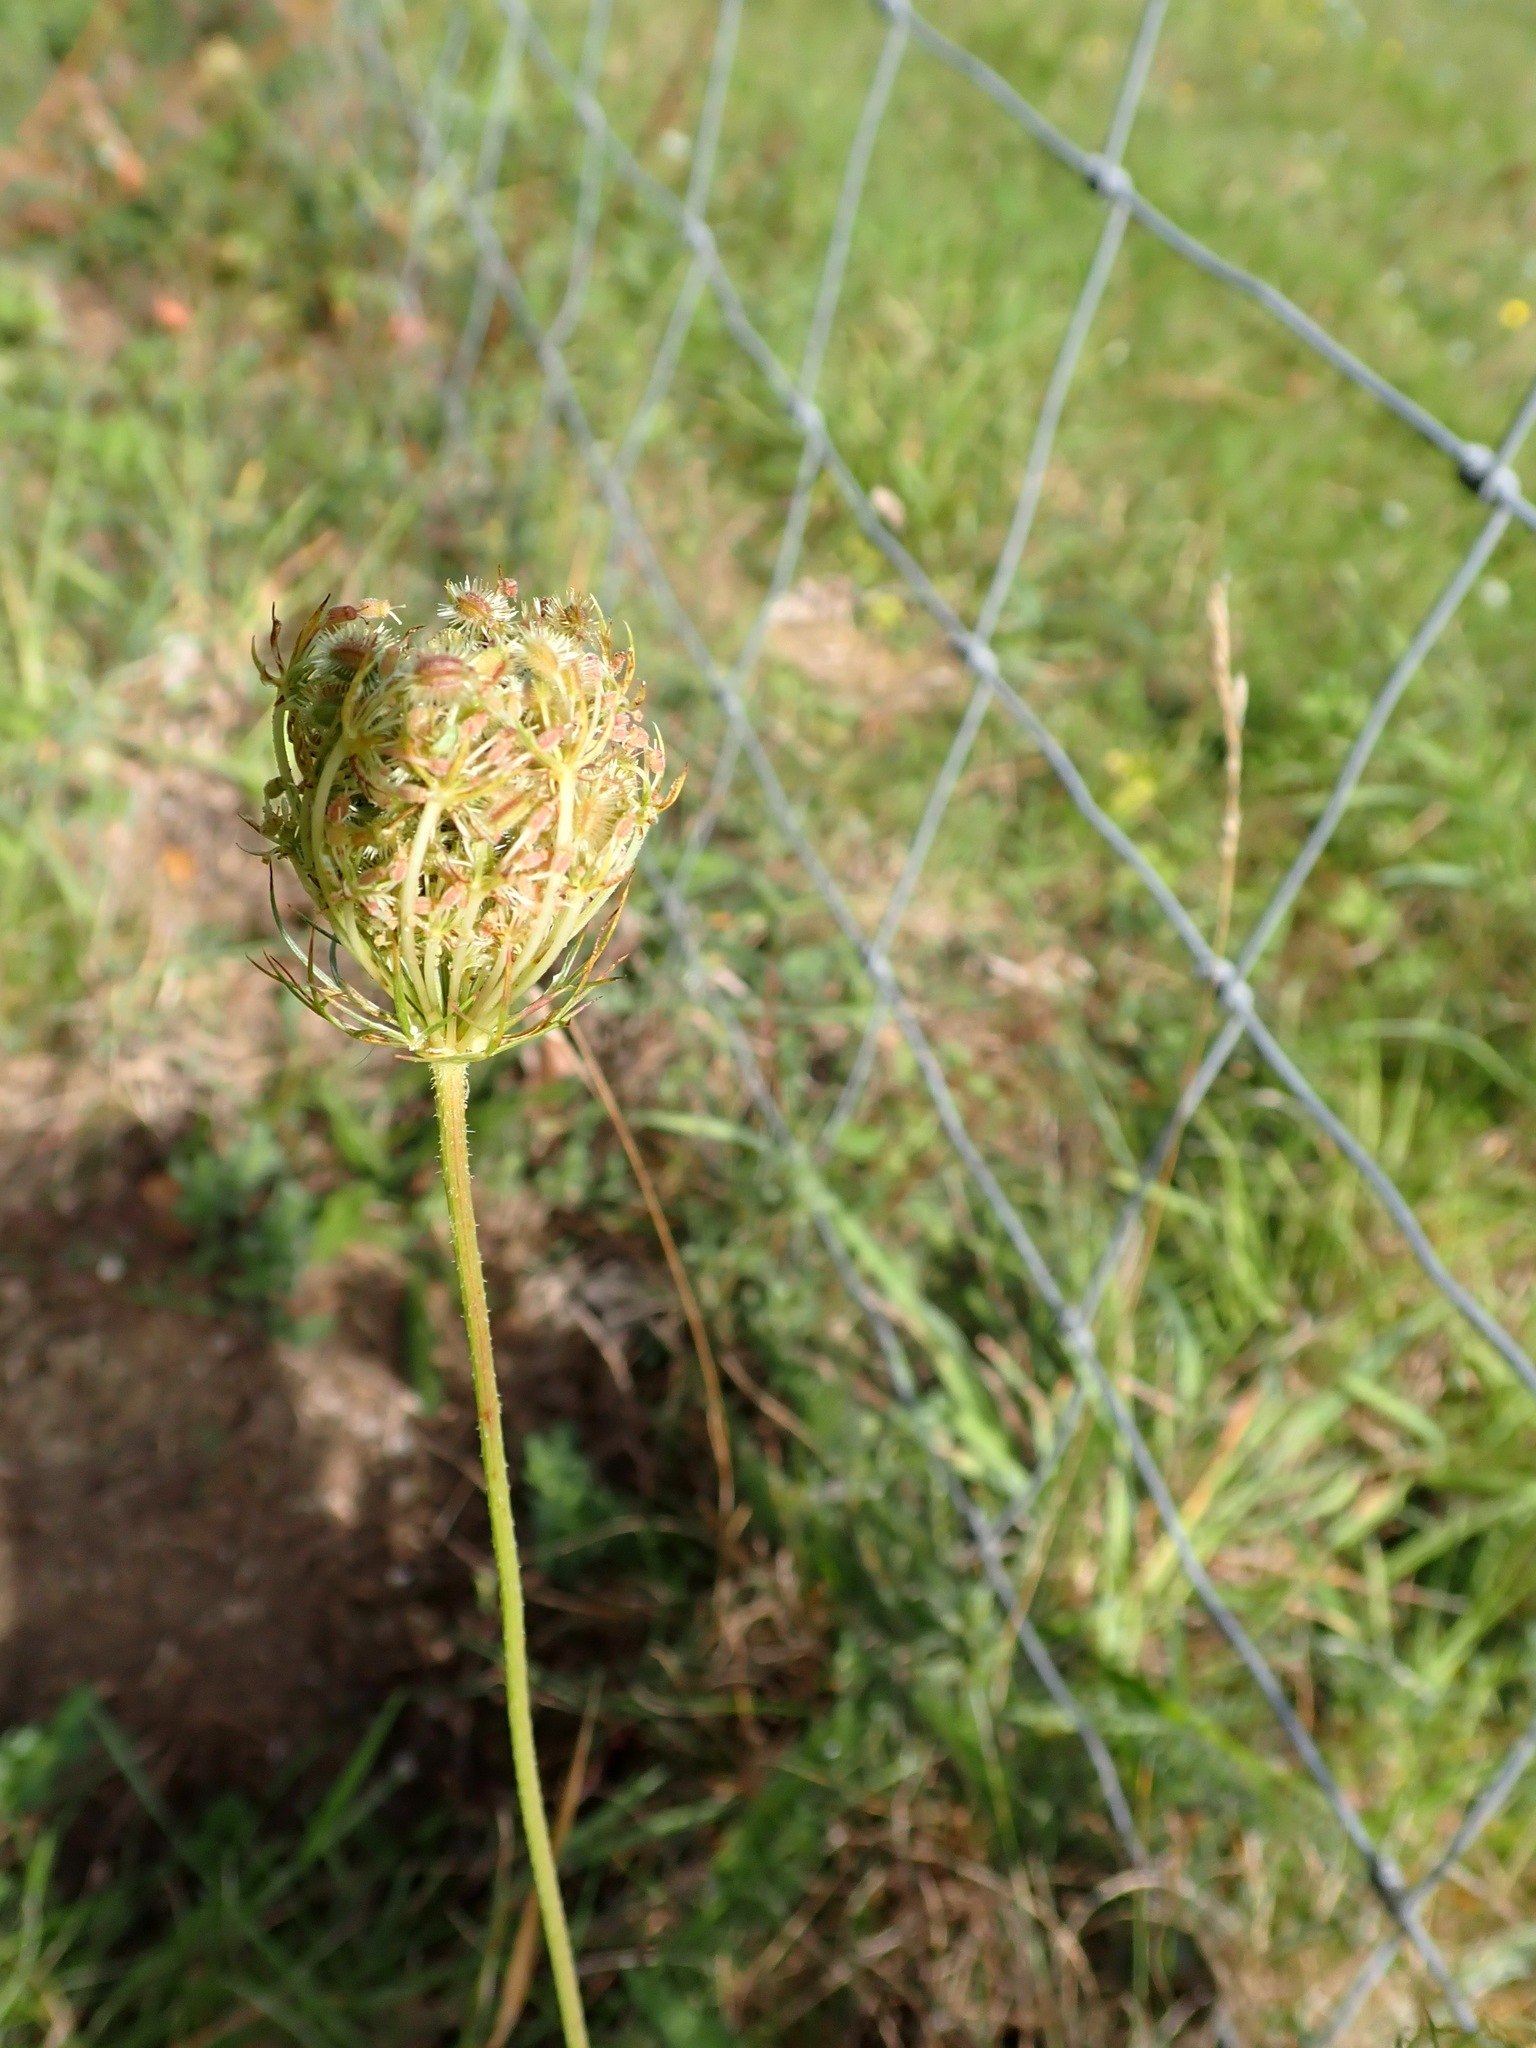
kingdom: Plantae
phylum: Tracheophyta
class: Magnoliopsida
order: Apiales
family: Apiaceae
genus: Daucus
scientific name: Daucus carota
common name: Wild carrot
